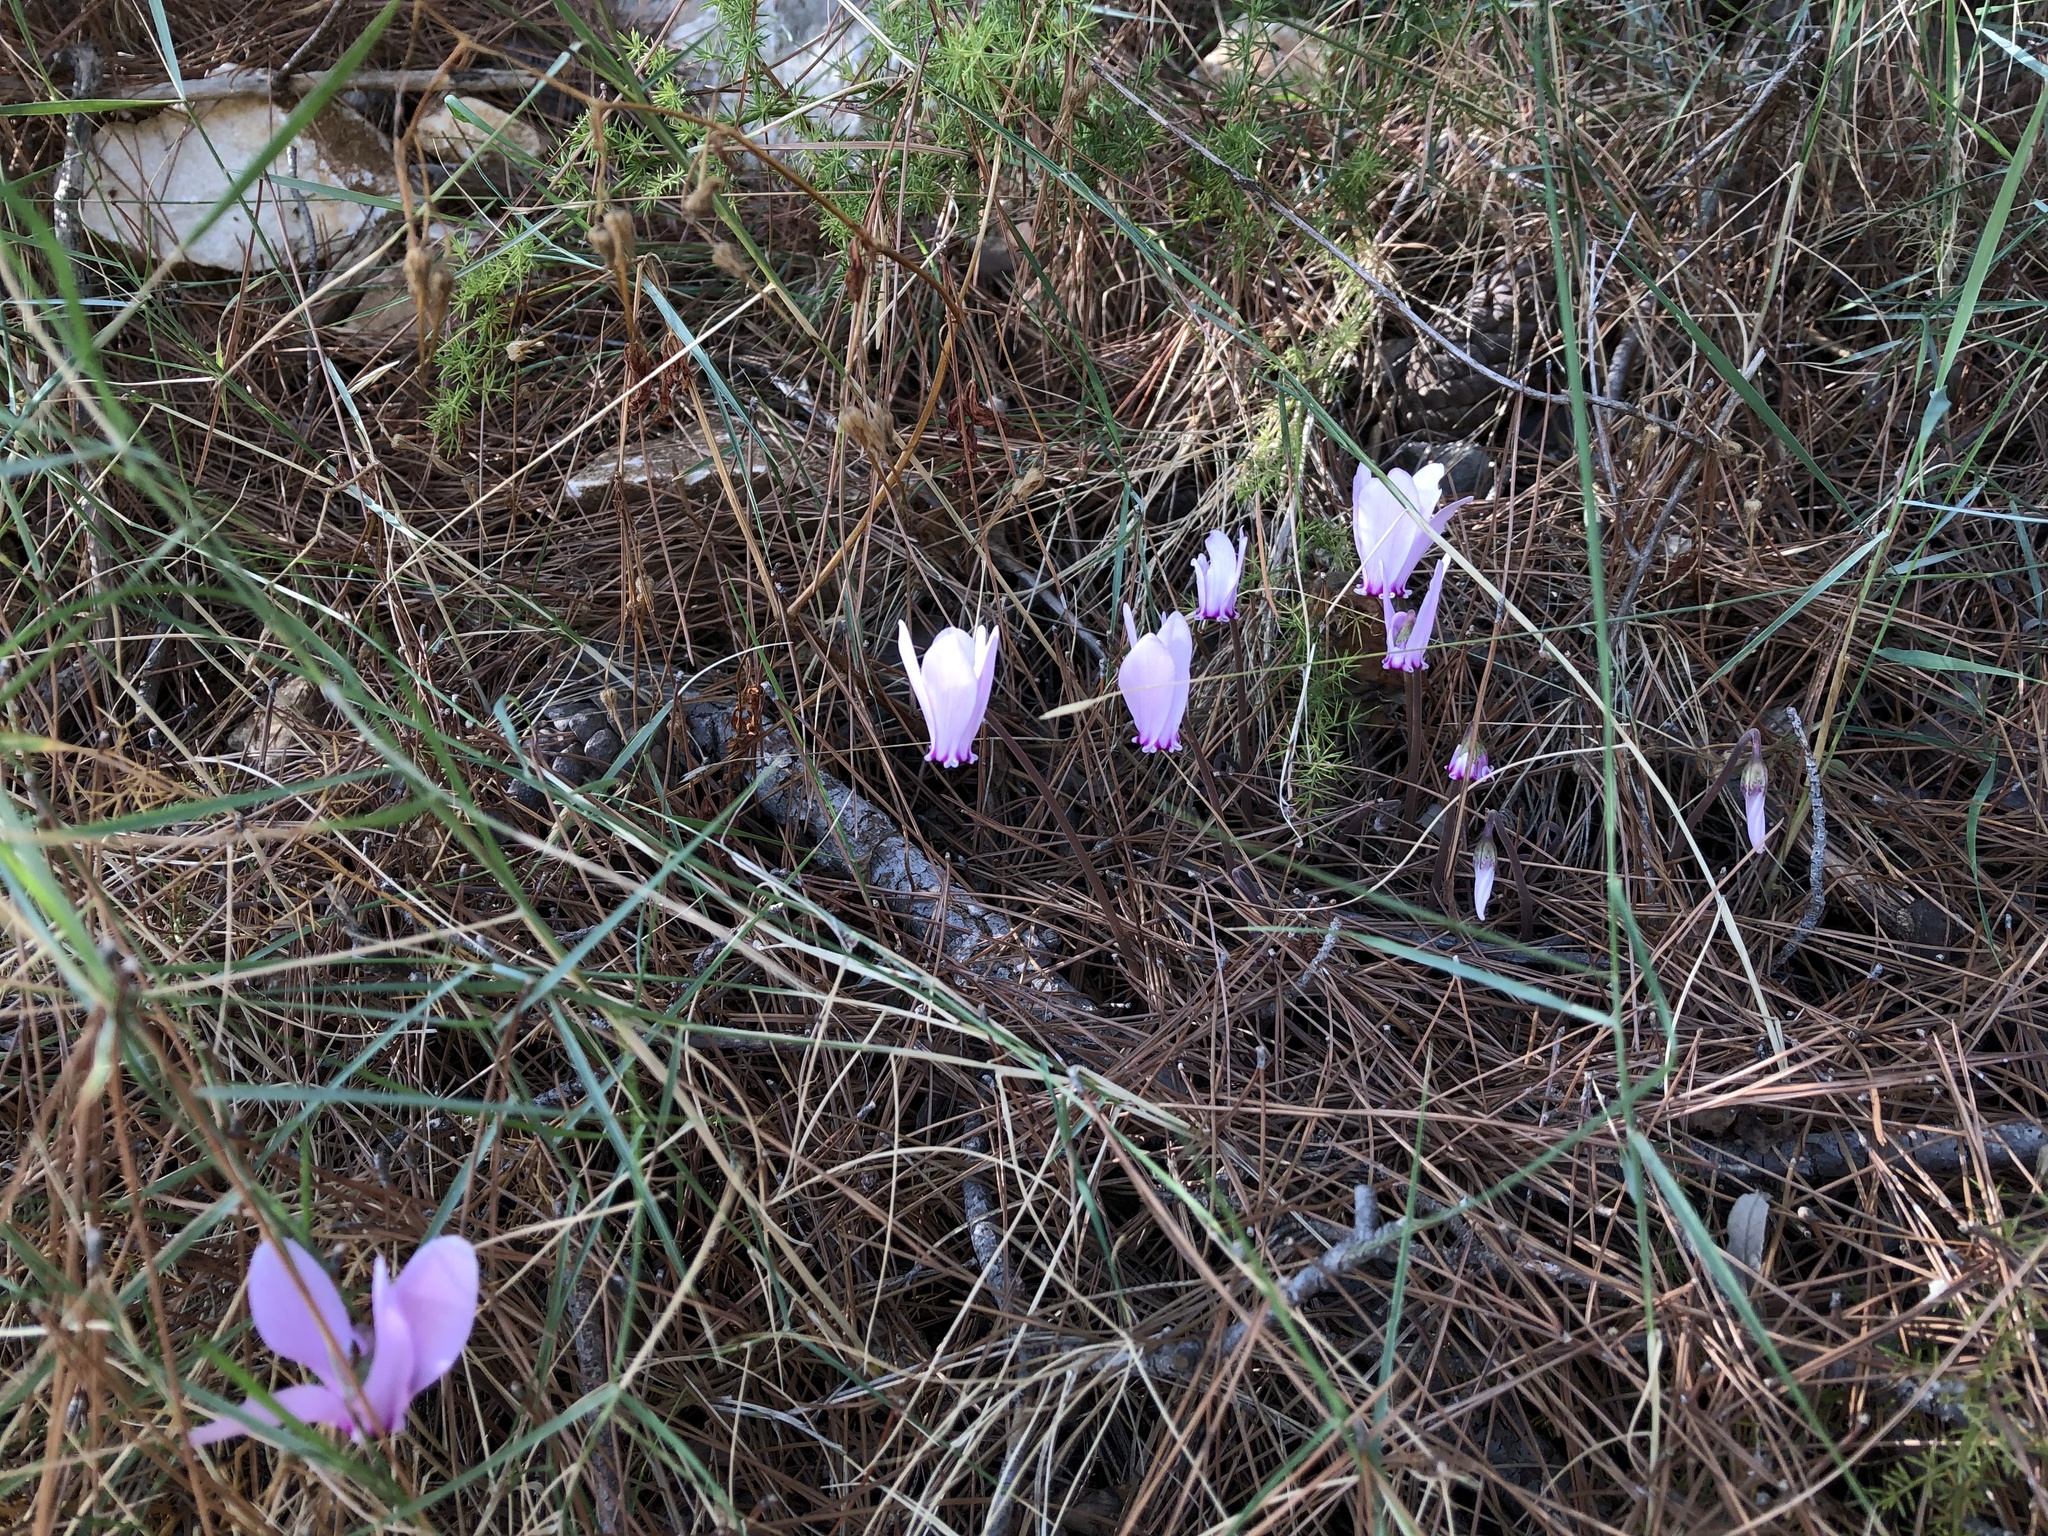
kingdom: Plantae
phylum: Tracheophyta
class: Magnoliopsida
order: Ericales
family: Primulaceae
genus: Cyclamen
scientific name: Cyclamen hederifolium
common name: Sowbread
